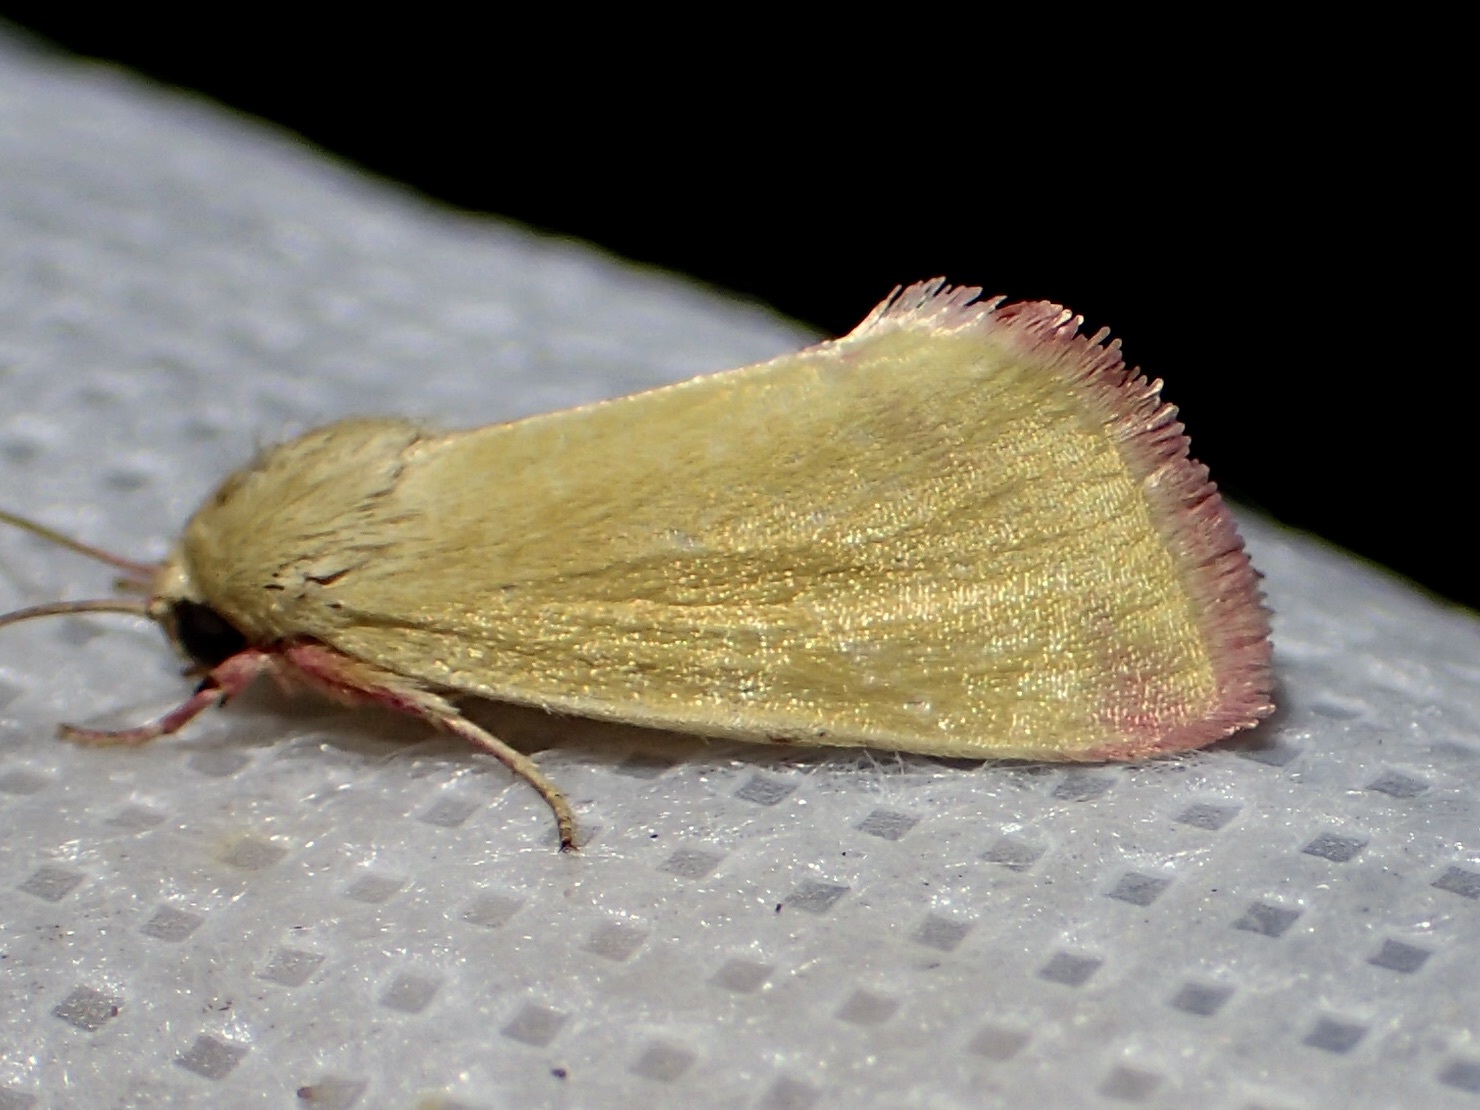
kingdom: Animalia
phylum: Arthropoda
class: Insecta
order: Lepidoptera
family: Noctuidae
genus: Heliocheilus
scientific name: Heliocheilus toralis
